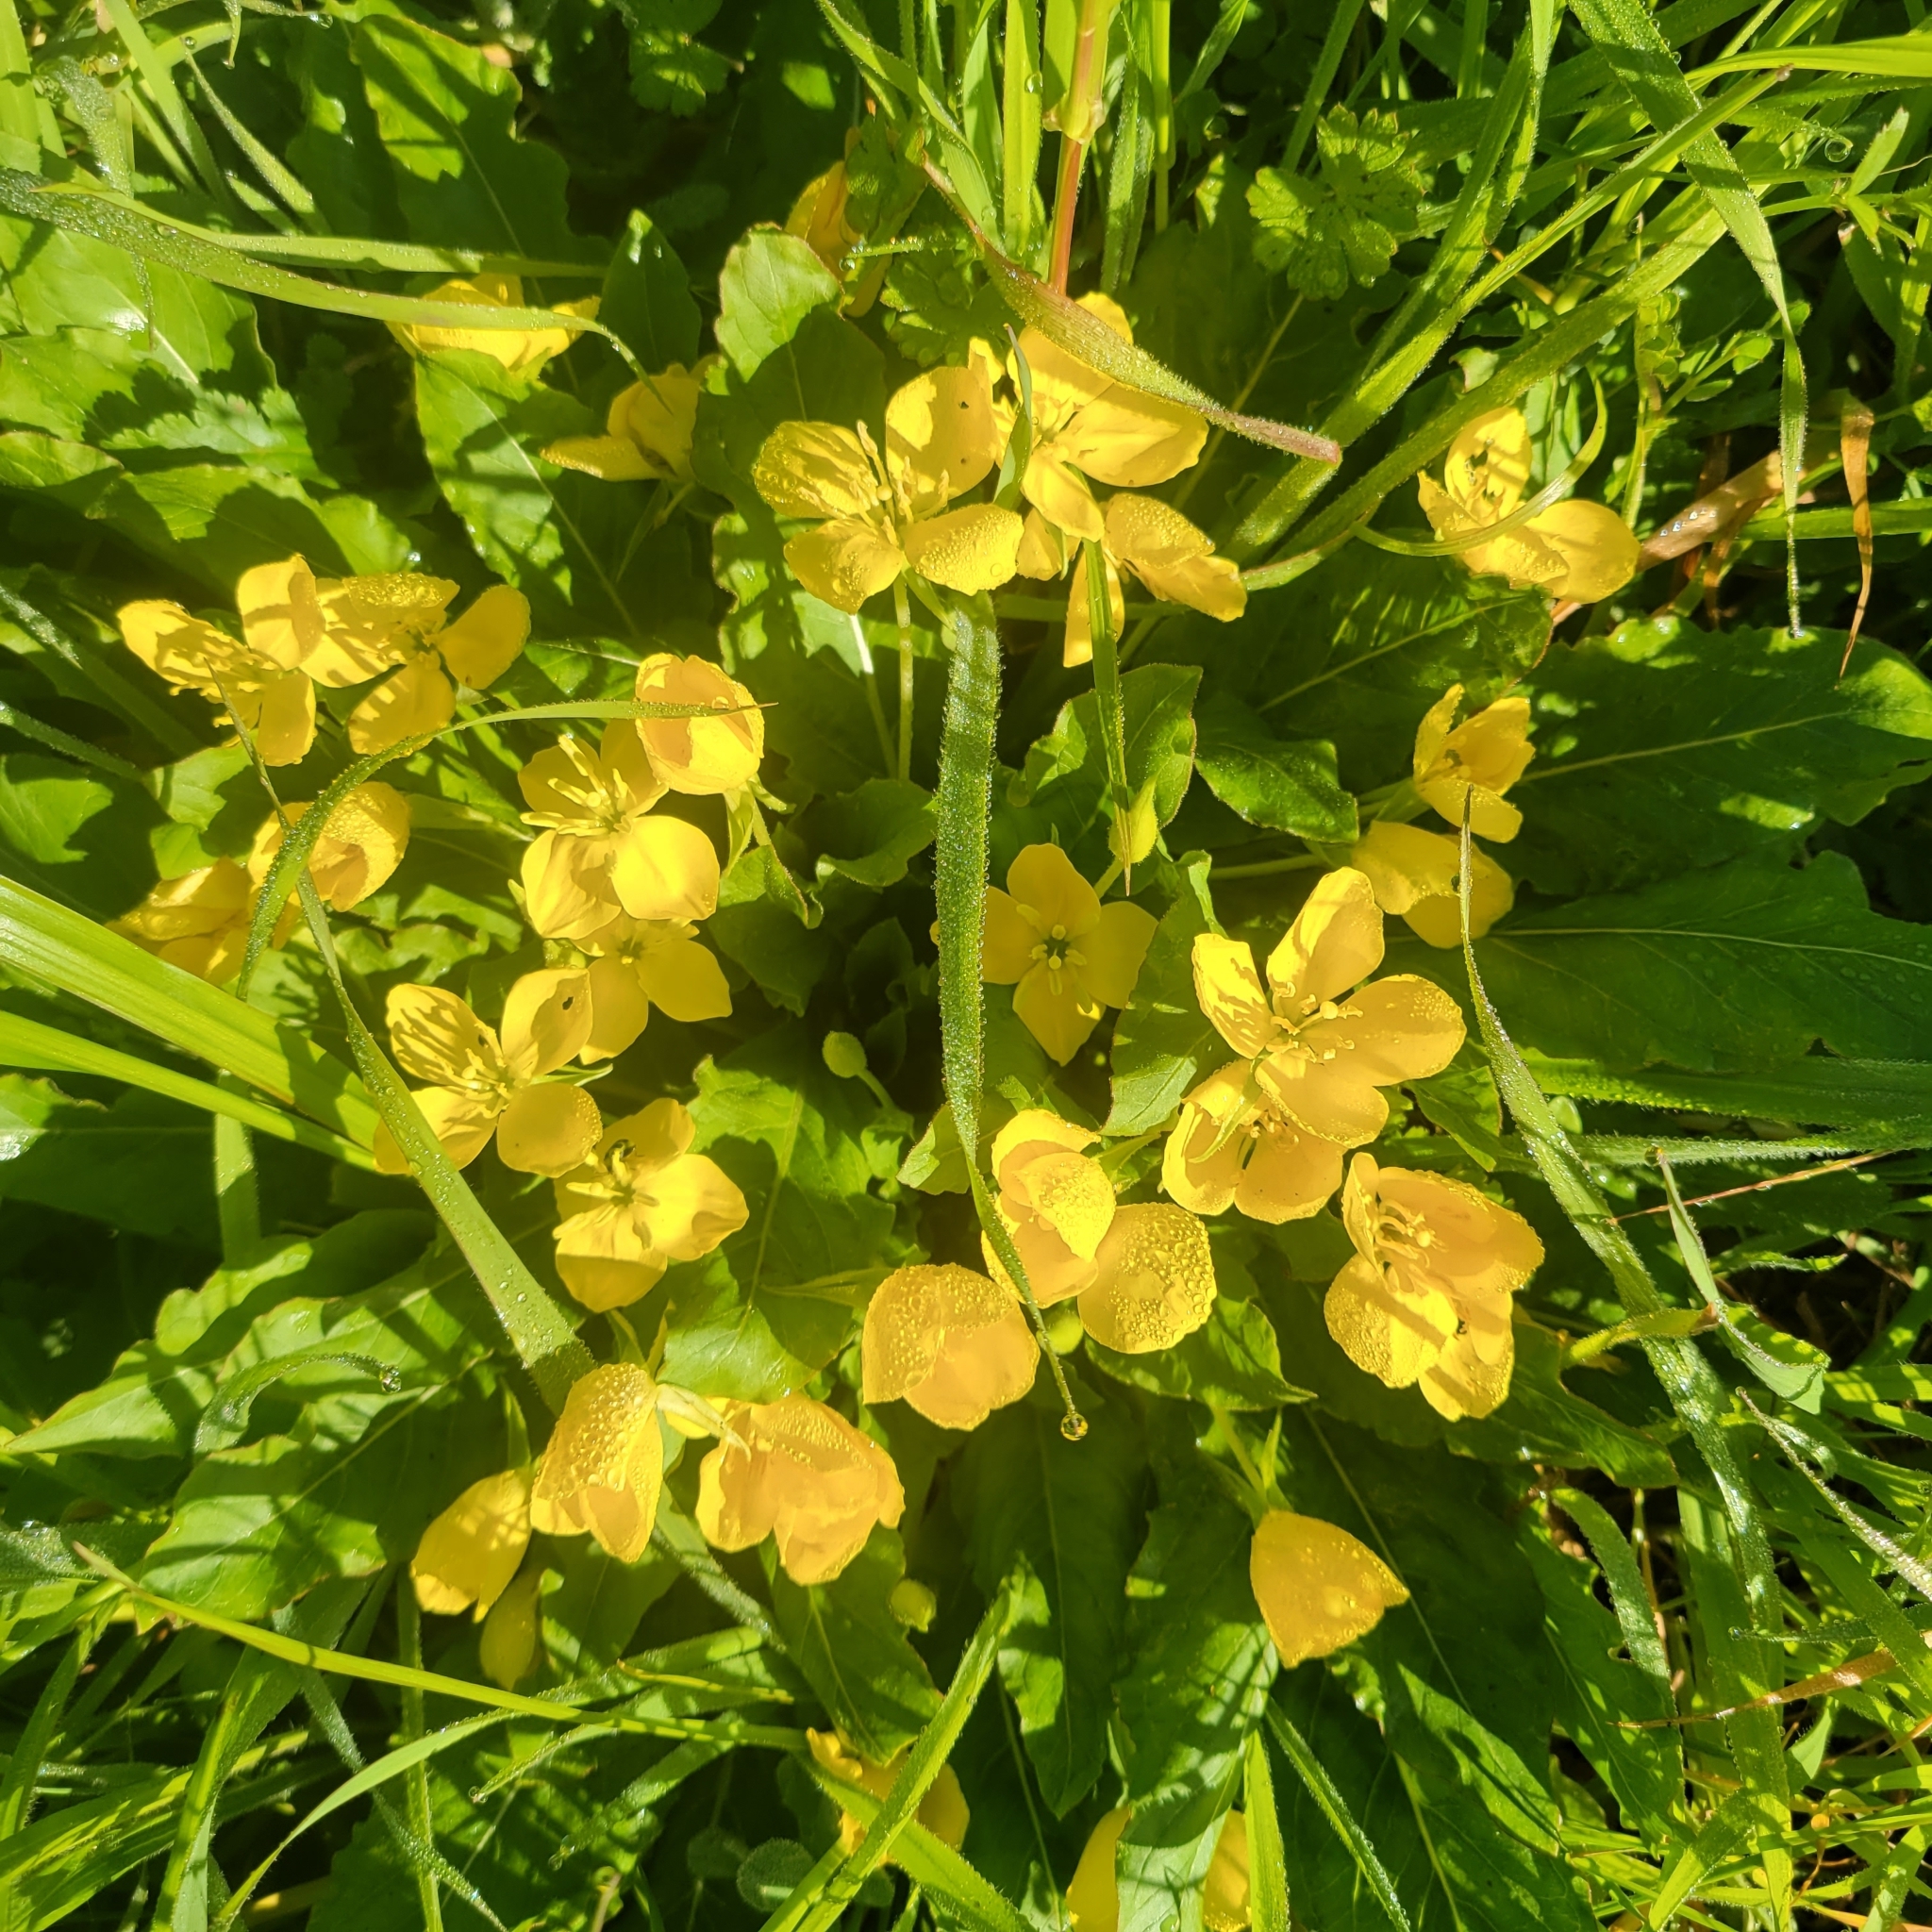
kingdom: Plantae
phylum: Tracheophyta
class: Magnoliopsida
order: Myrtales
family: Onagraceae
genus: Taraxia
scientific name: Taraxia ovata
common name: Goldeneggs
